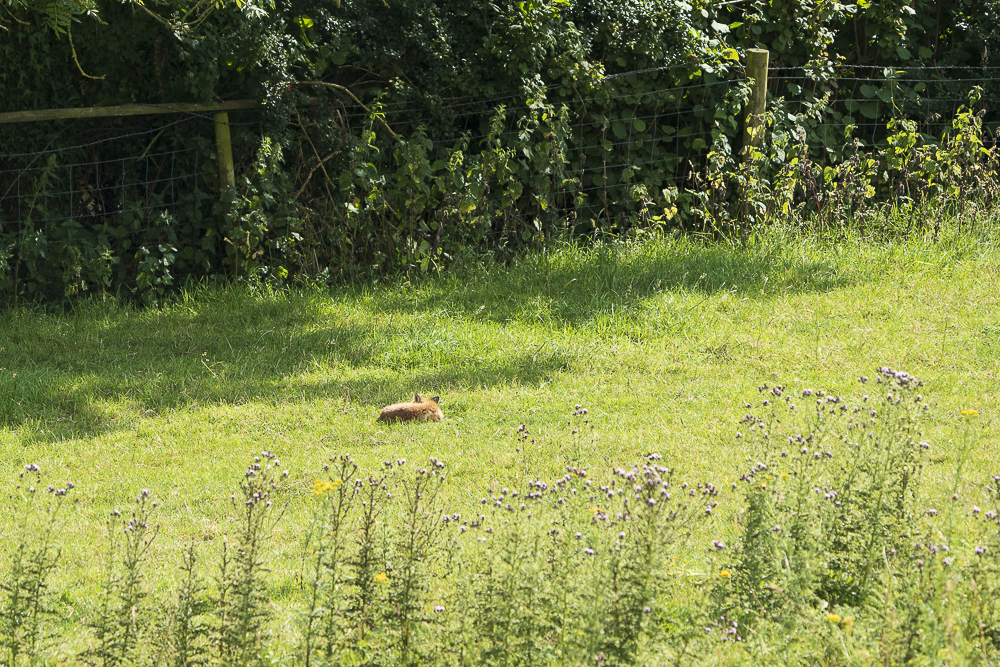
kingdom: Animalia
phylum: Chordata
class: Mammalia
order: Carnivora
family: Canidae
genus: Vulpes
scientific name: Vulpes vulpes
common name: Red fox
